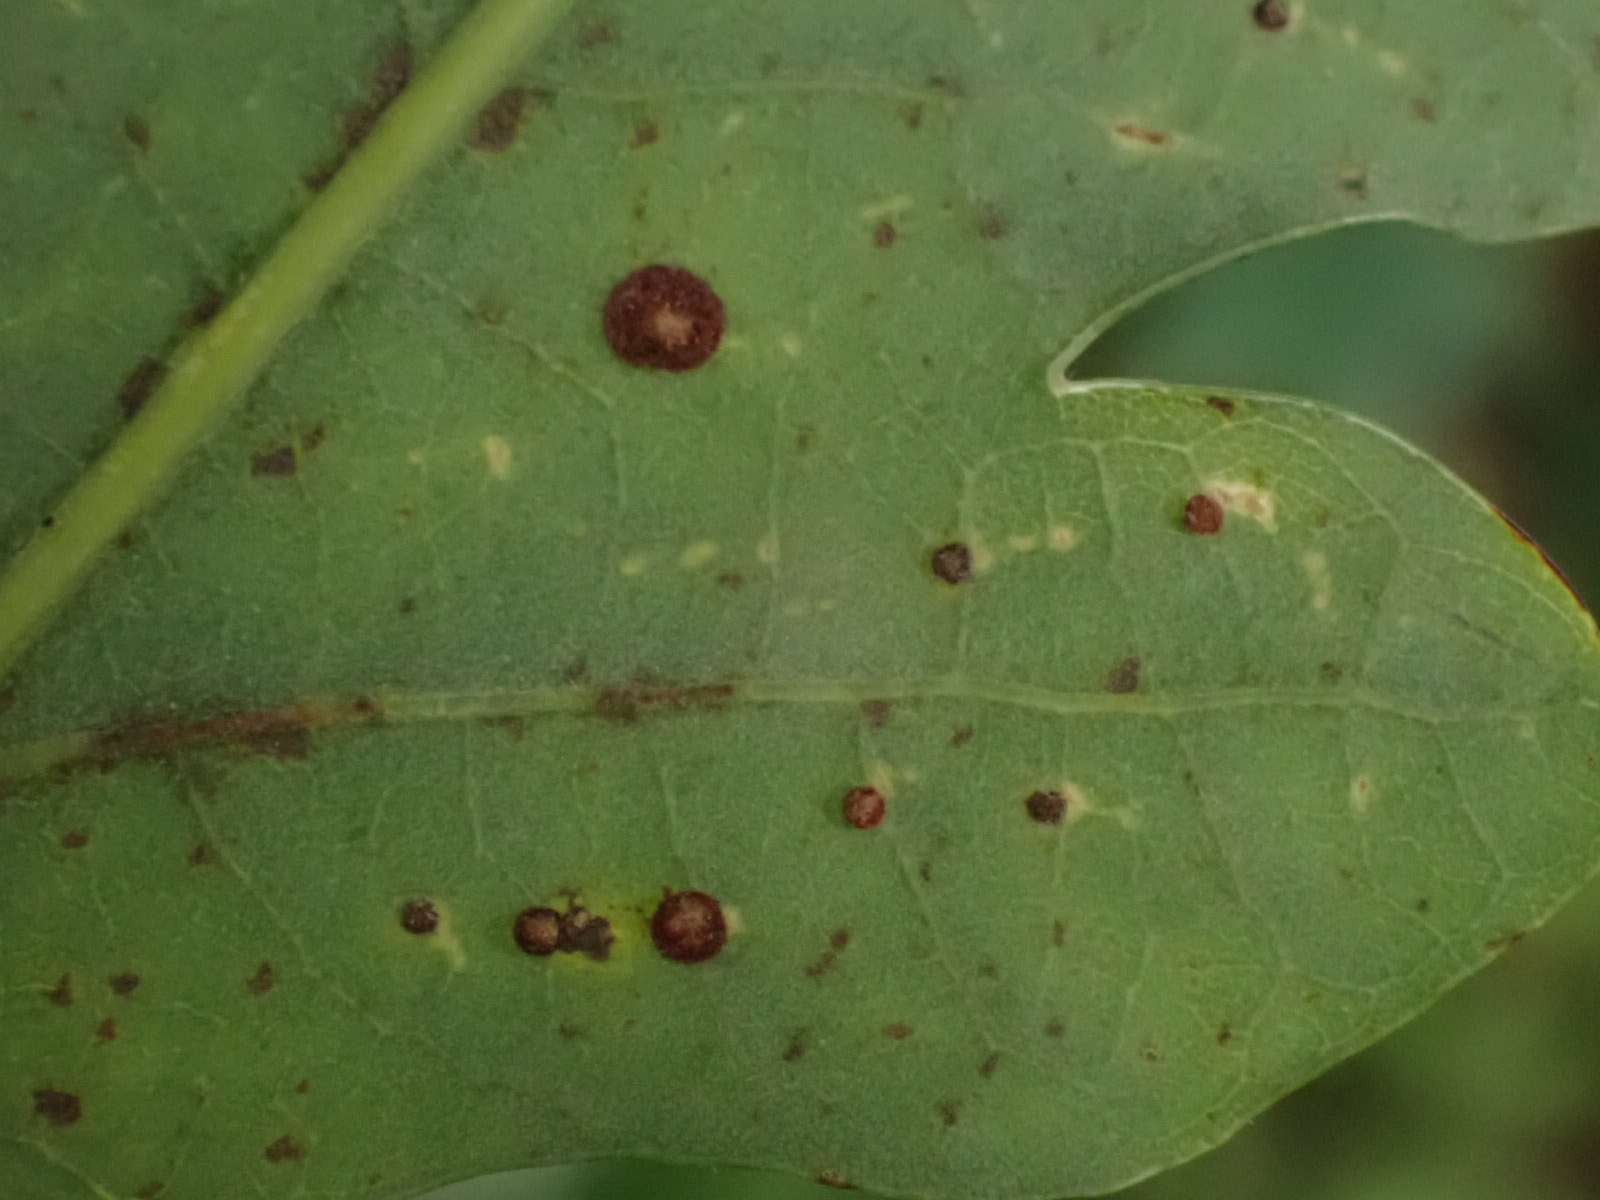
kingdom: Animalia
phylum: Arthropoda
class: Insecta
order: Hymenoptera
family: Cynipidae
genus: Neuroterus
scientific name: Neuroterus quercusbaccarum
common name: Common spangle gall
